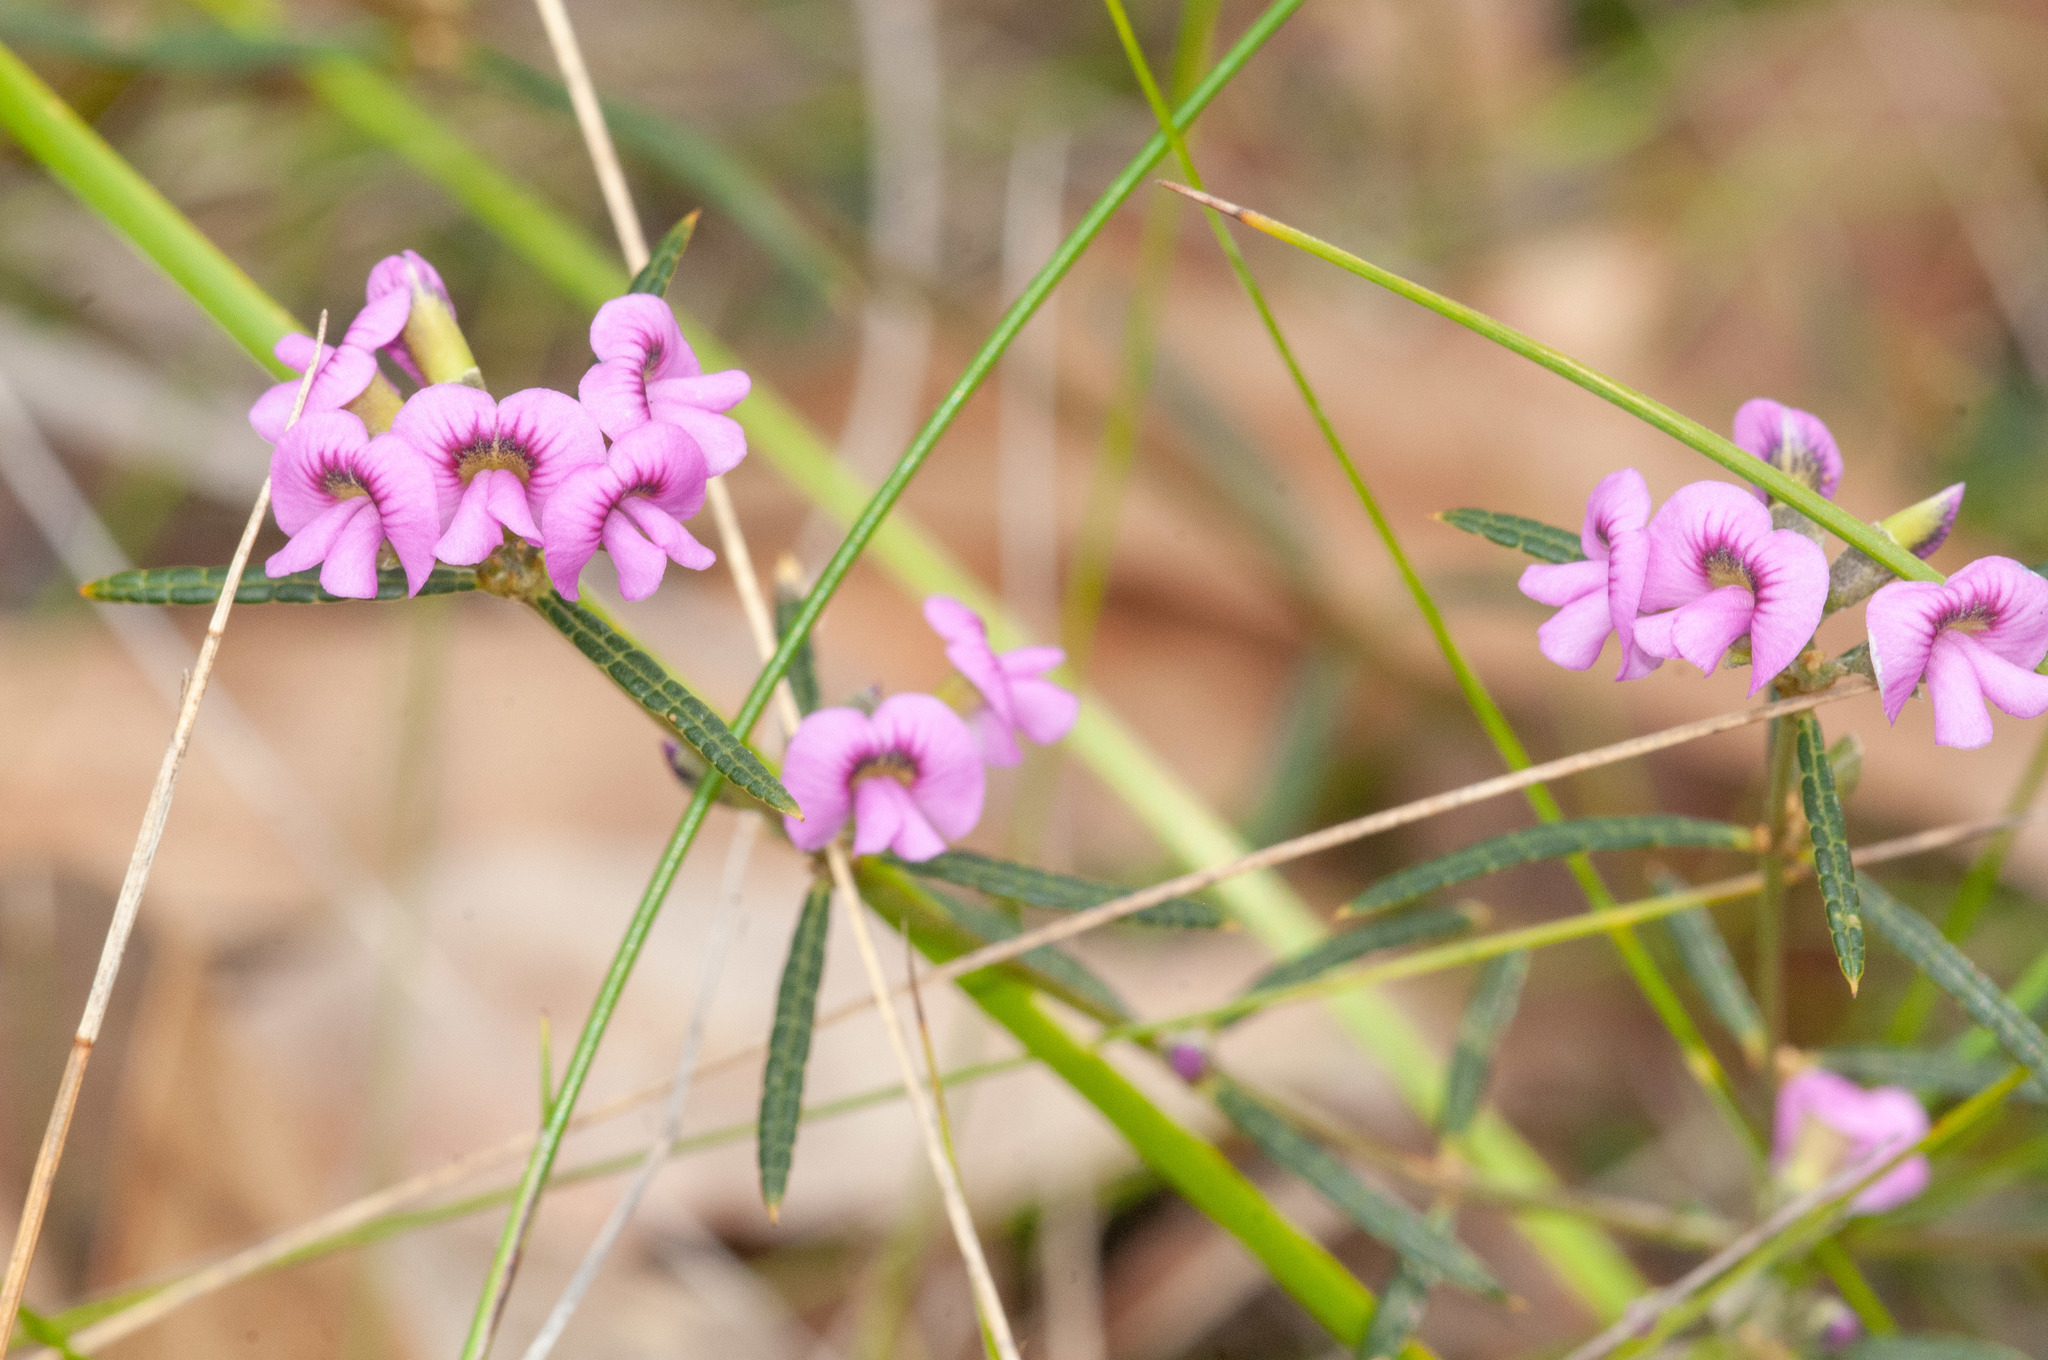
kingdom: Plantae
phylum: Tracheophyta
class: Magnoliopsida
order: Fabales
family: Fabaceae
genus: Mirbelia
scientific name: Mirbelia rubiifolia
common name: Heathy mirbelia
